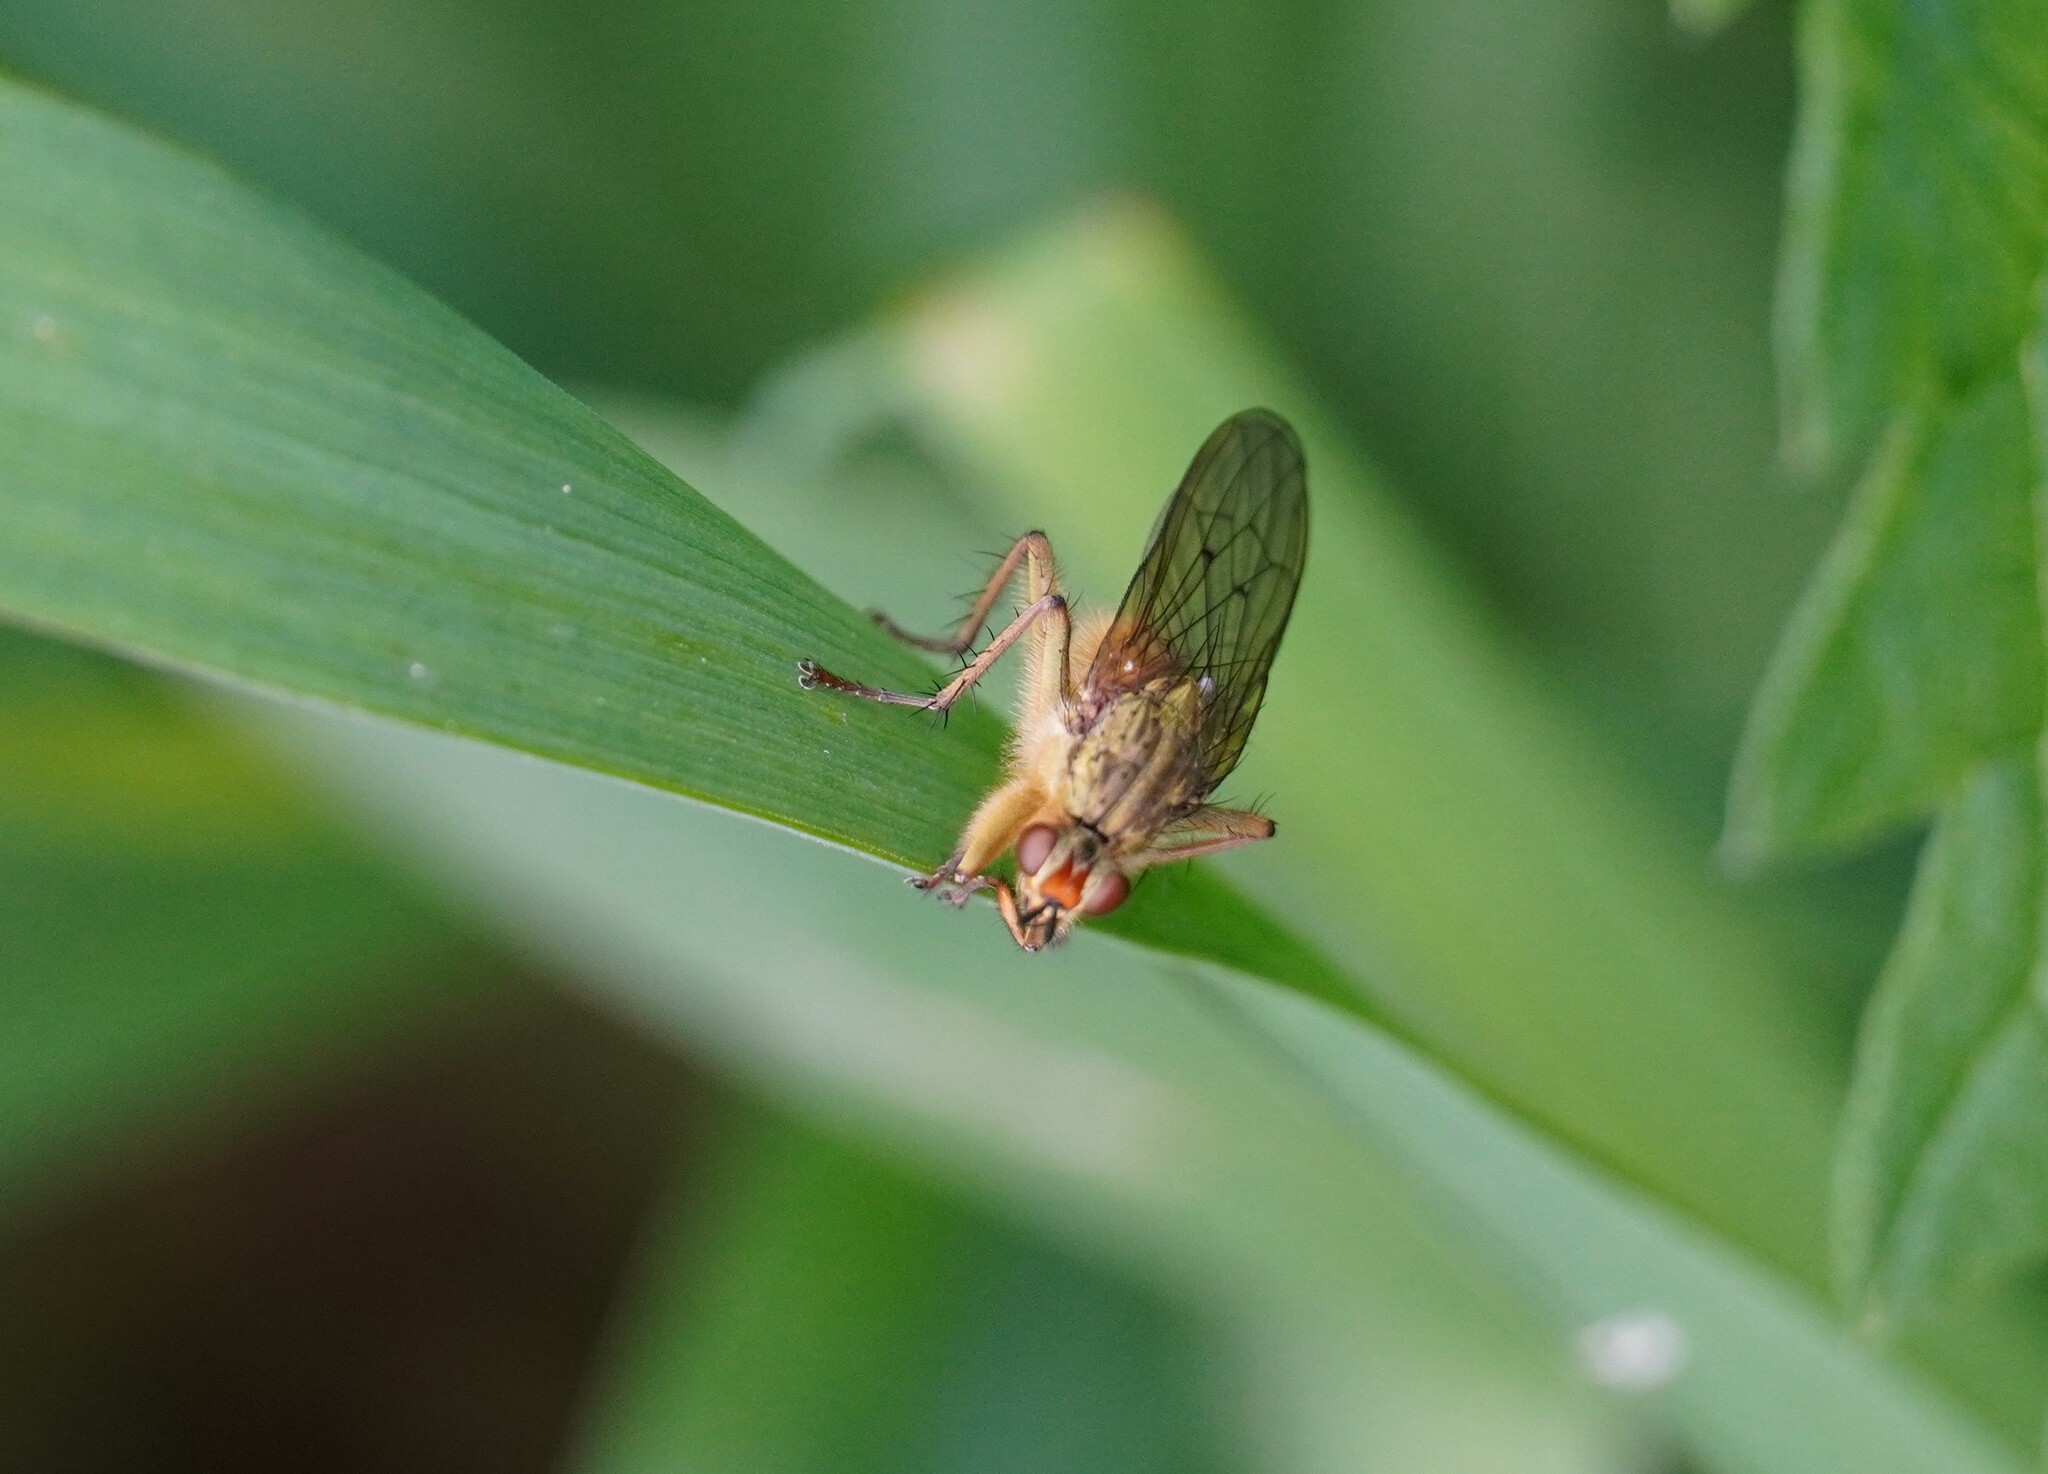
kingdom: Animalia
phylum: Arthropoda
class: Insecta
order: Diptera
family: Scathophagidae
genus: Scathophaga
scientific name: Scathophaga stercoraria
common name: Yellow dung fly
